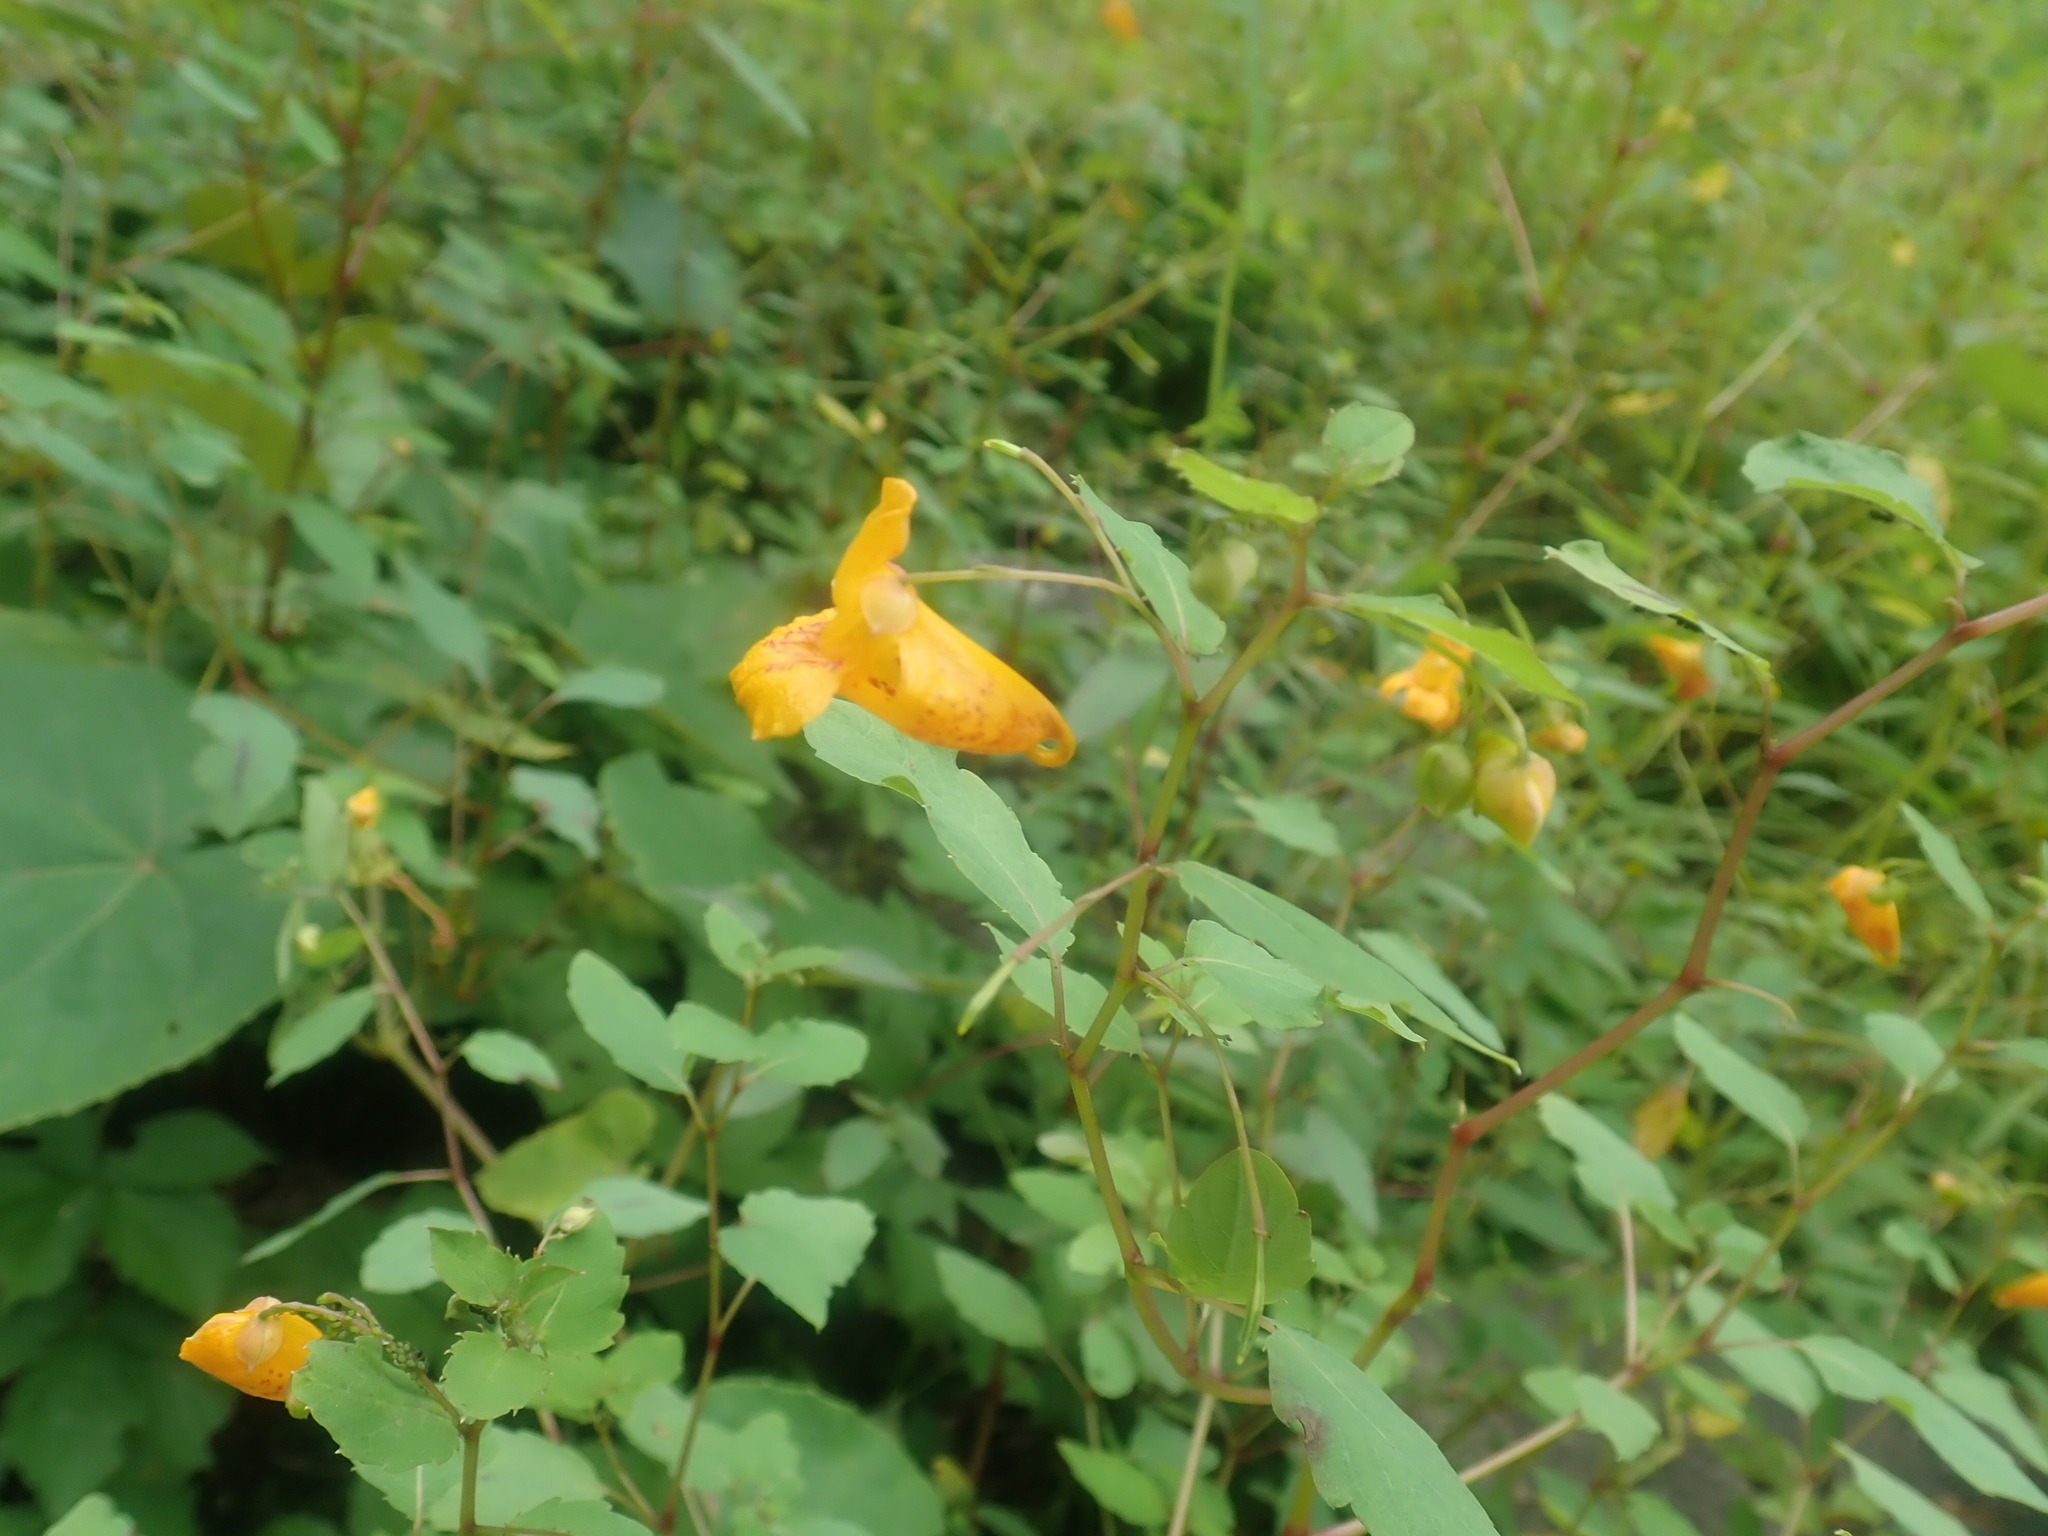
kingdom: Plantae
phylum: Tracheophyta
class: Magnoliopsida
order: Ericales
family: Balsaminaceae
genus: Impatiens
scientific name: Impatiens capensis
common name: Orange balsam
